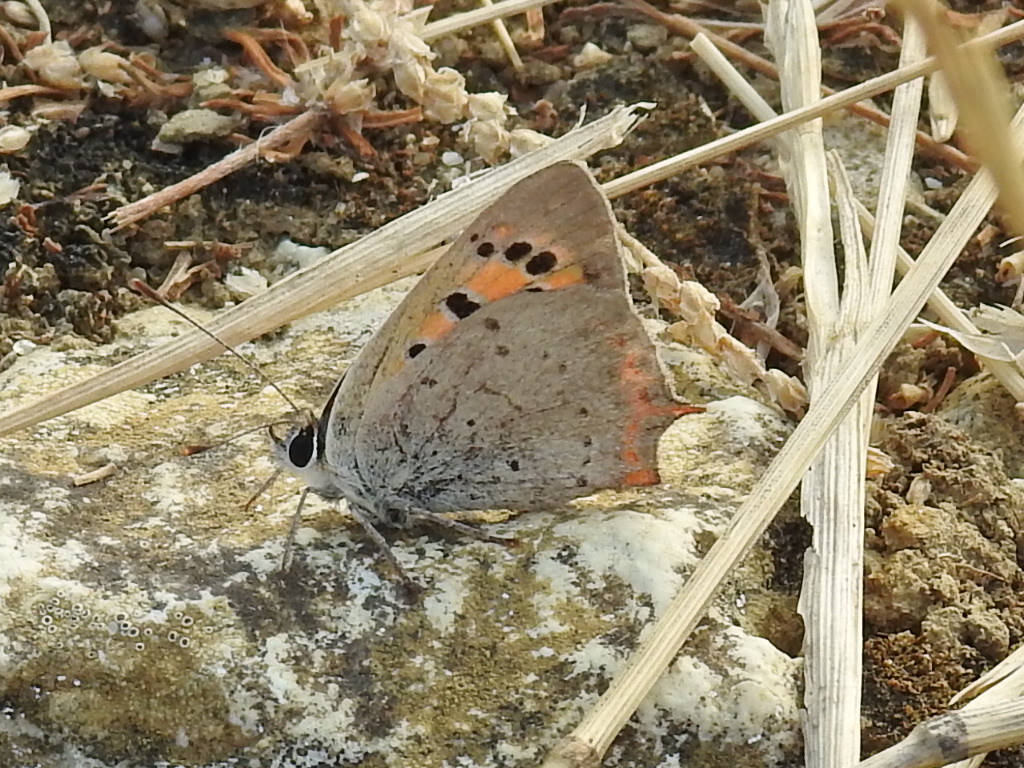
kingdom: Animalia
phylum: Arthropoda
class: Insecta
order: Lepidoptera
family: Lycaenidae
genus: Lycaena
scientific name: Lycaena phlaeas
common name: Small copper
